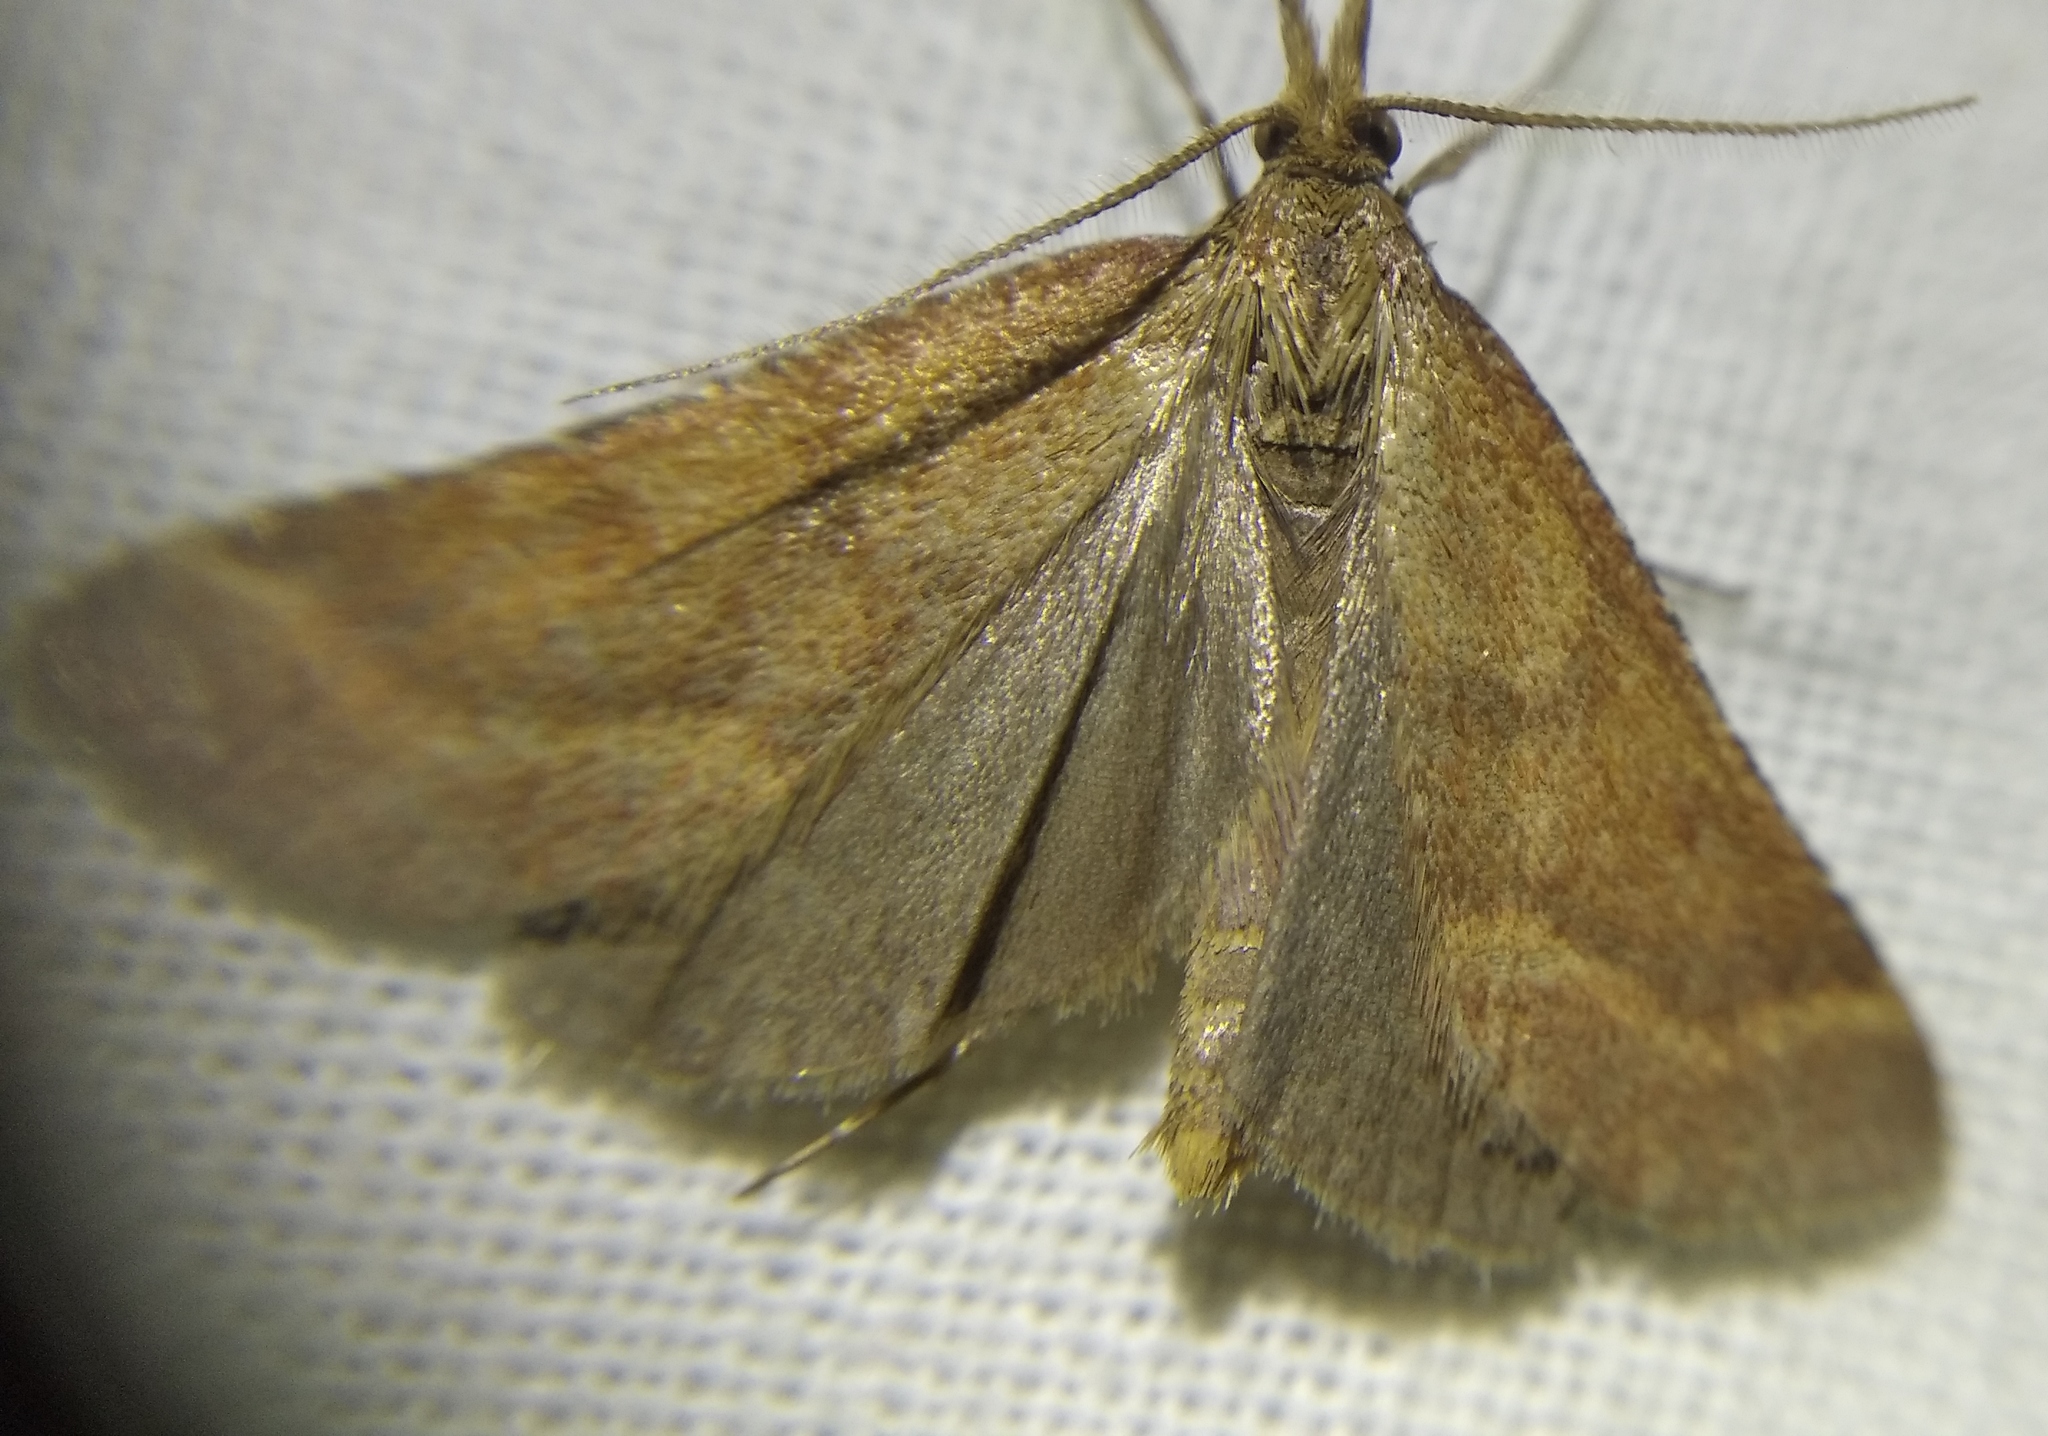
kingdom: Animalia
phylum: Arthropoda
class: Insecta
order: Lepidoptera
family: Pyralidae
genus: Synaphe
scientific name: Synaphe punctalis
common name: Long-legged tabby
